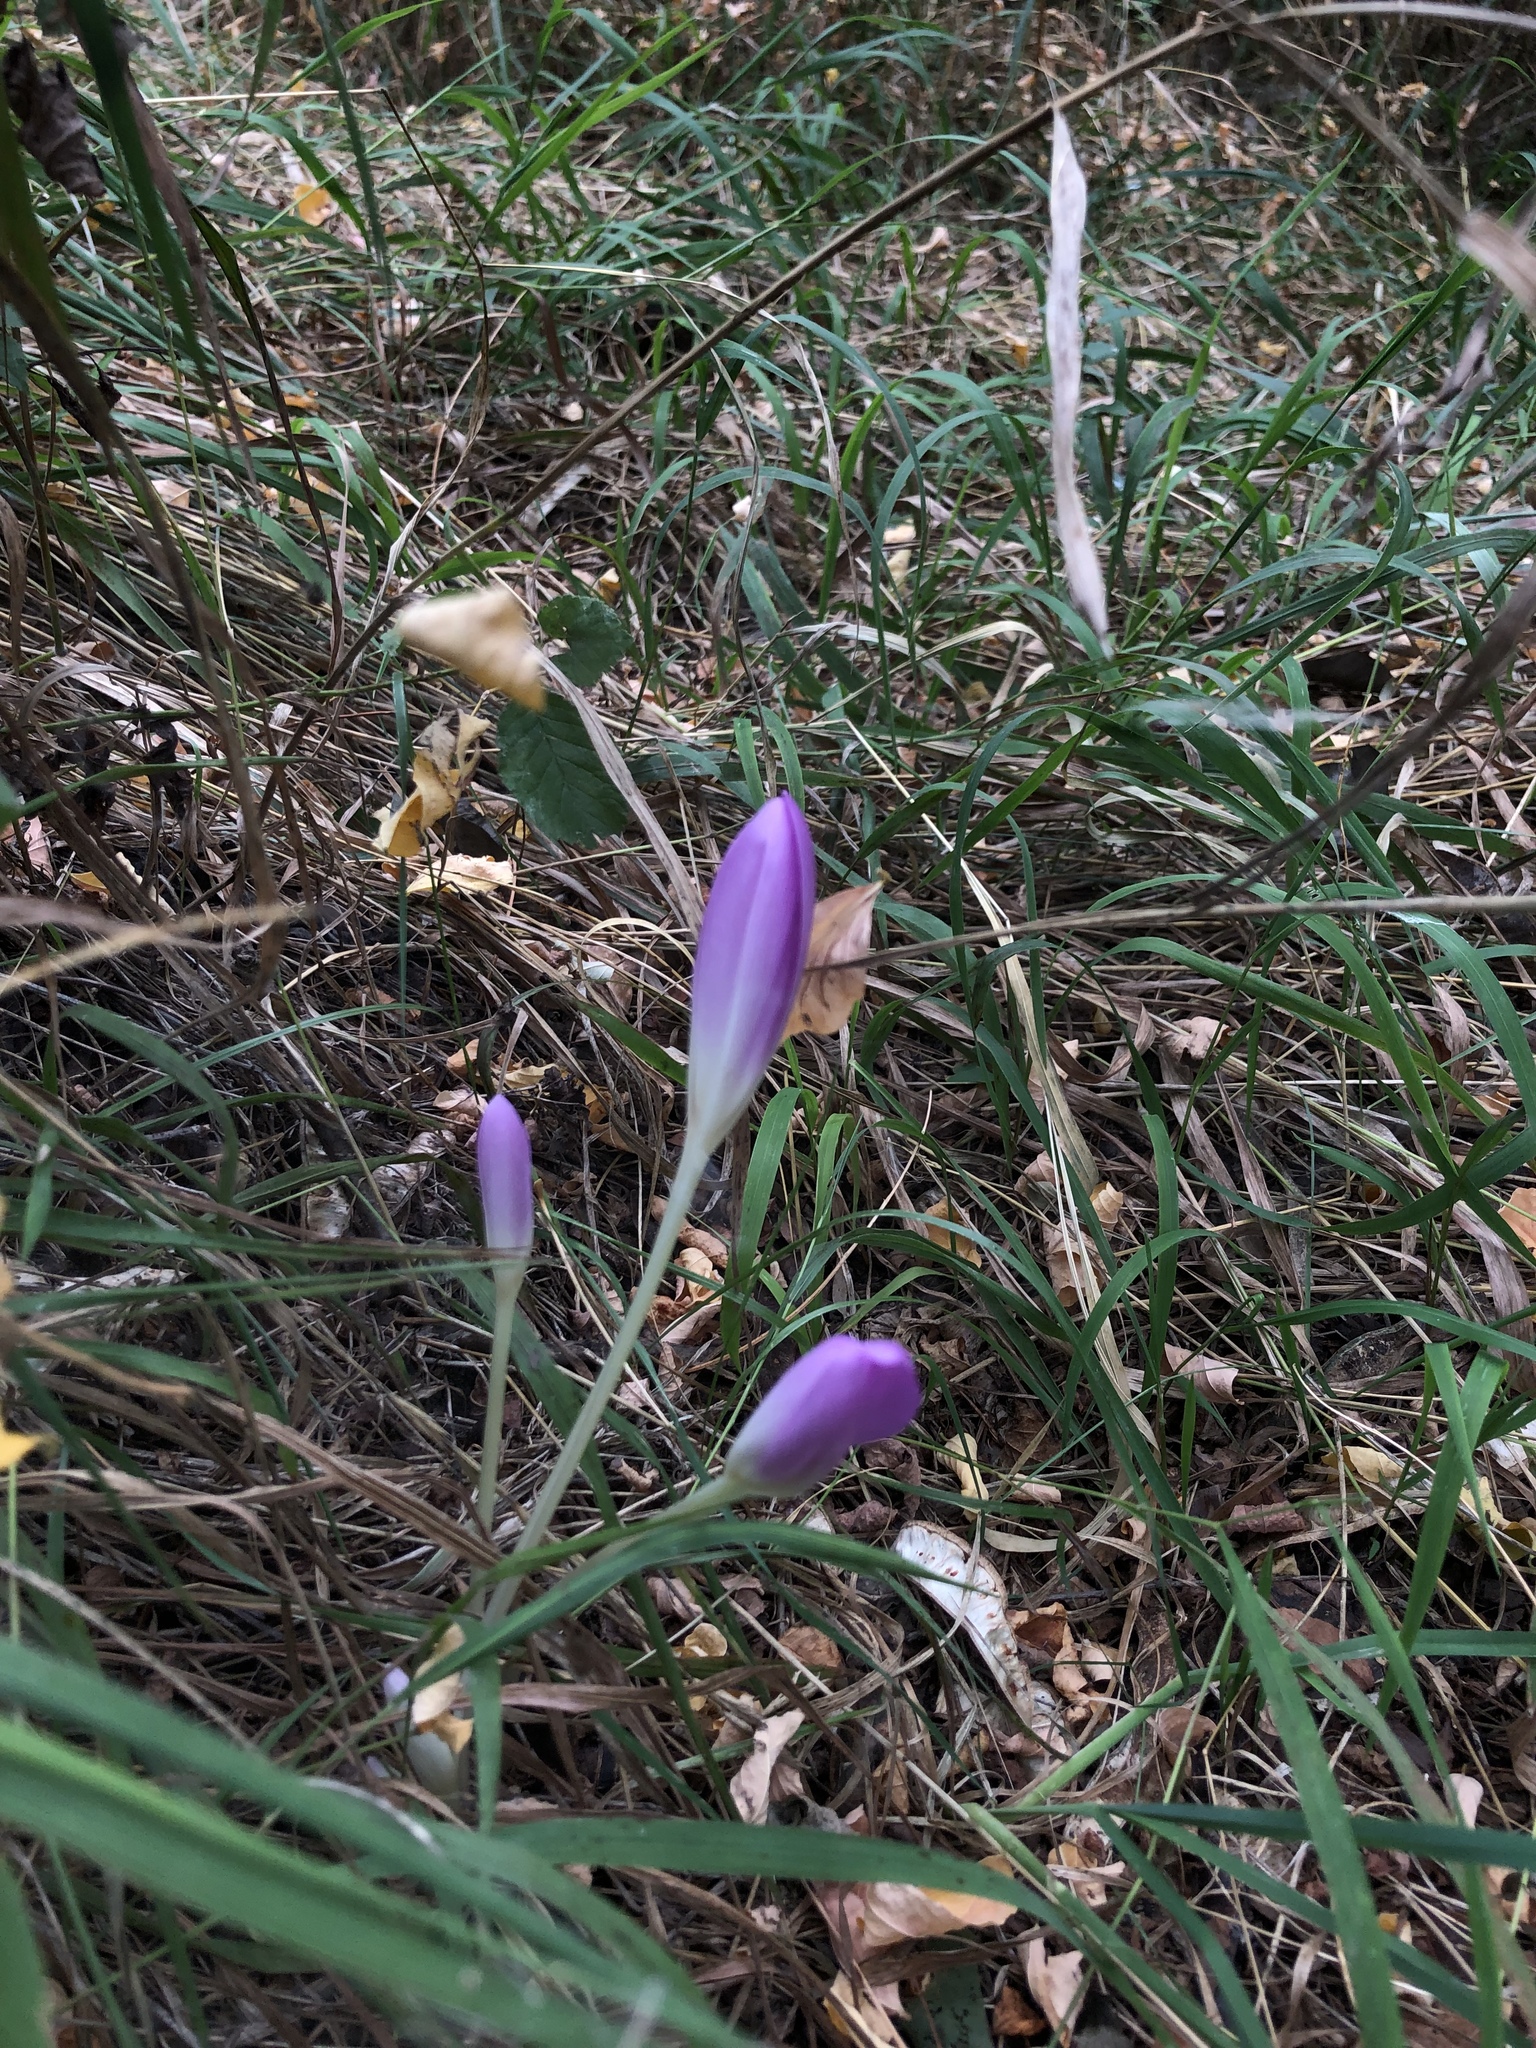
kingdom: Plantae
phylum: Tracheophyta
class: Liliopsida
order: Liliales
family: Colchicaceae
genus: Colchicum
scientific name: Colchicum autumnale
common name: Autumn crocus
